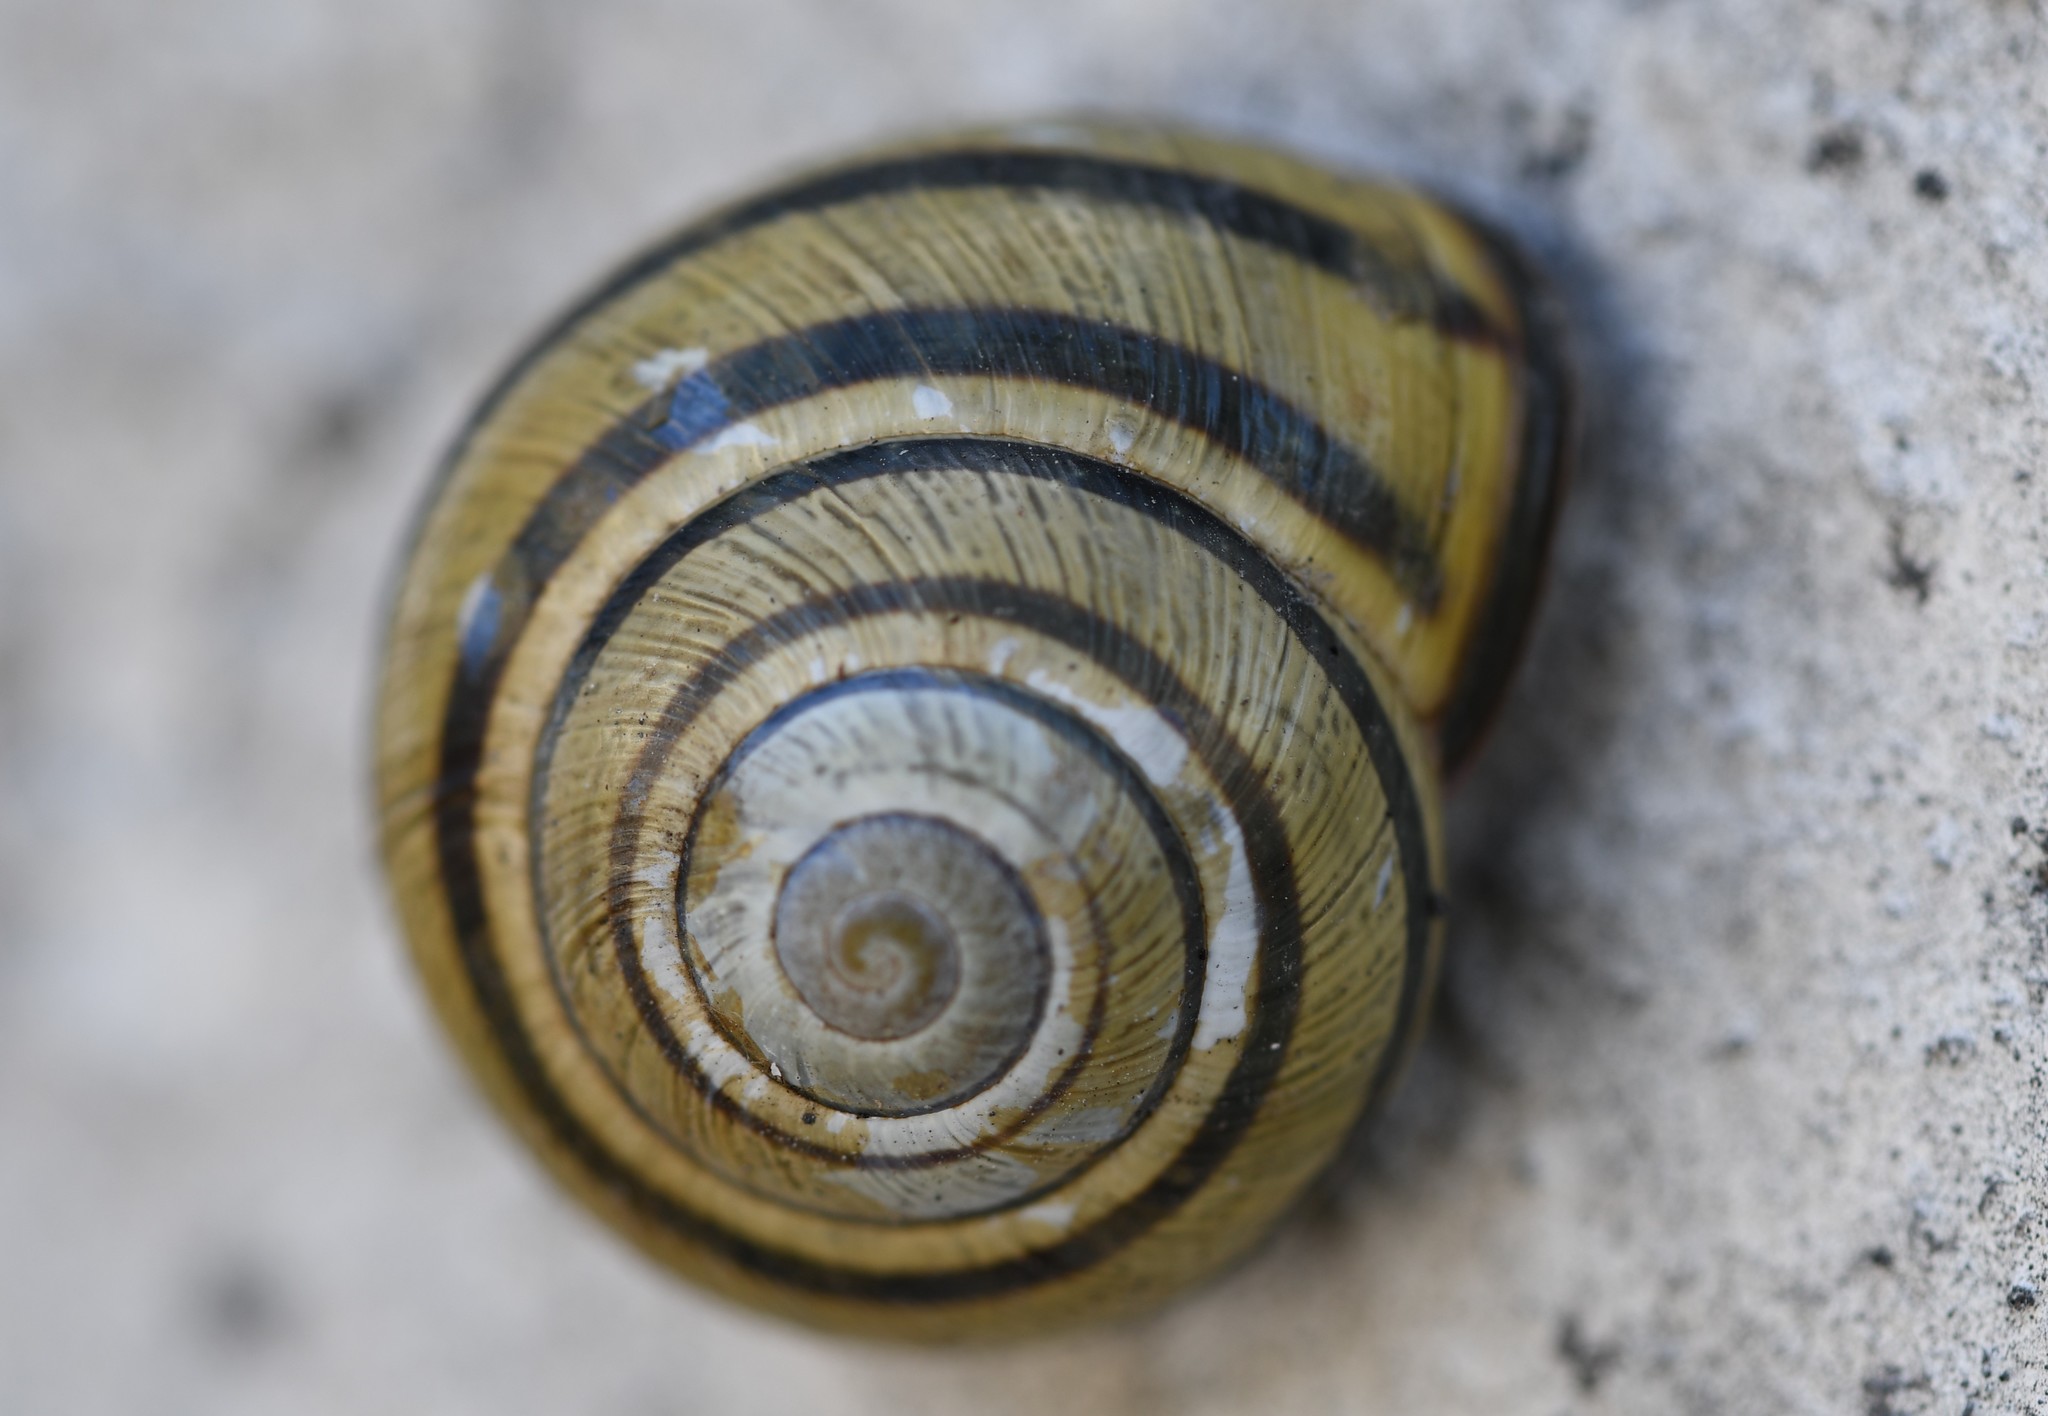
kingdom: Animalia
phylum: Mollusca
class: Gastropoda
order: Stylommatophora
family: Helicidae
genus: Cepaea
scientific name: Cepaea nemoralis
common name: Grovesnail
